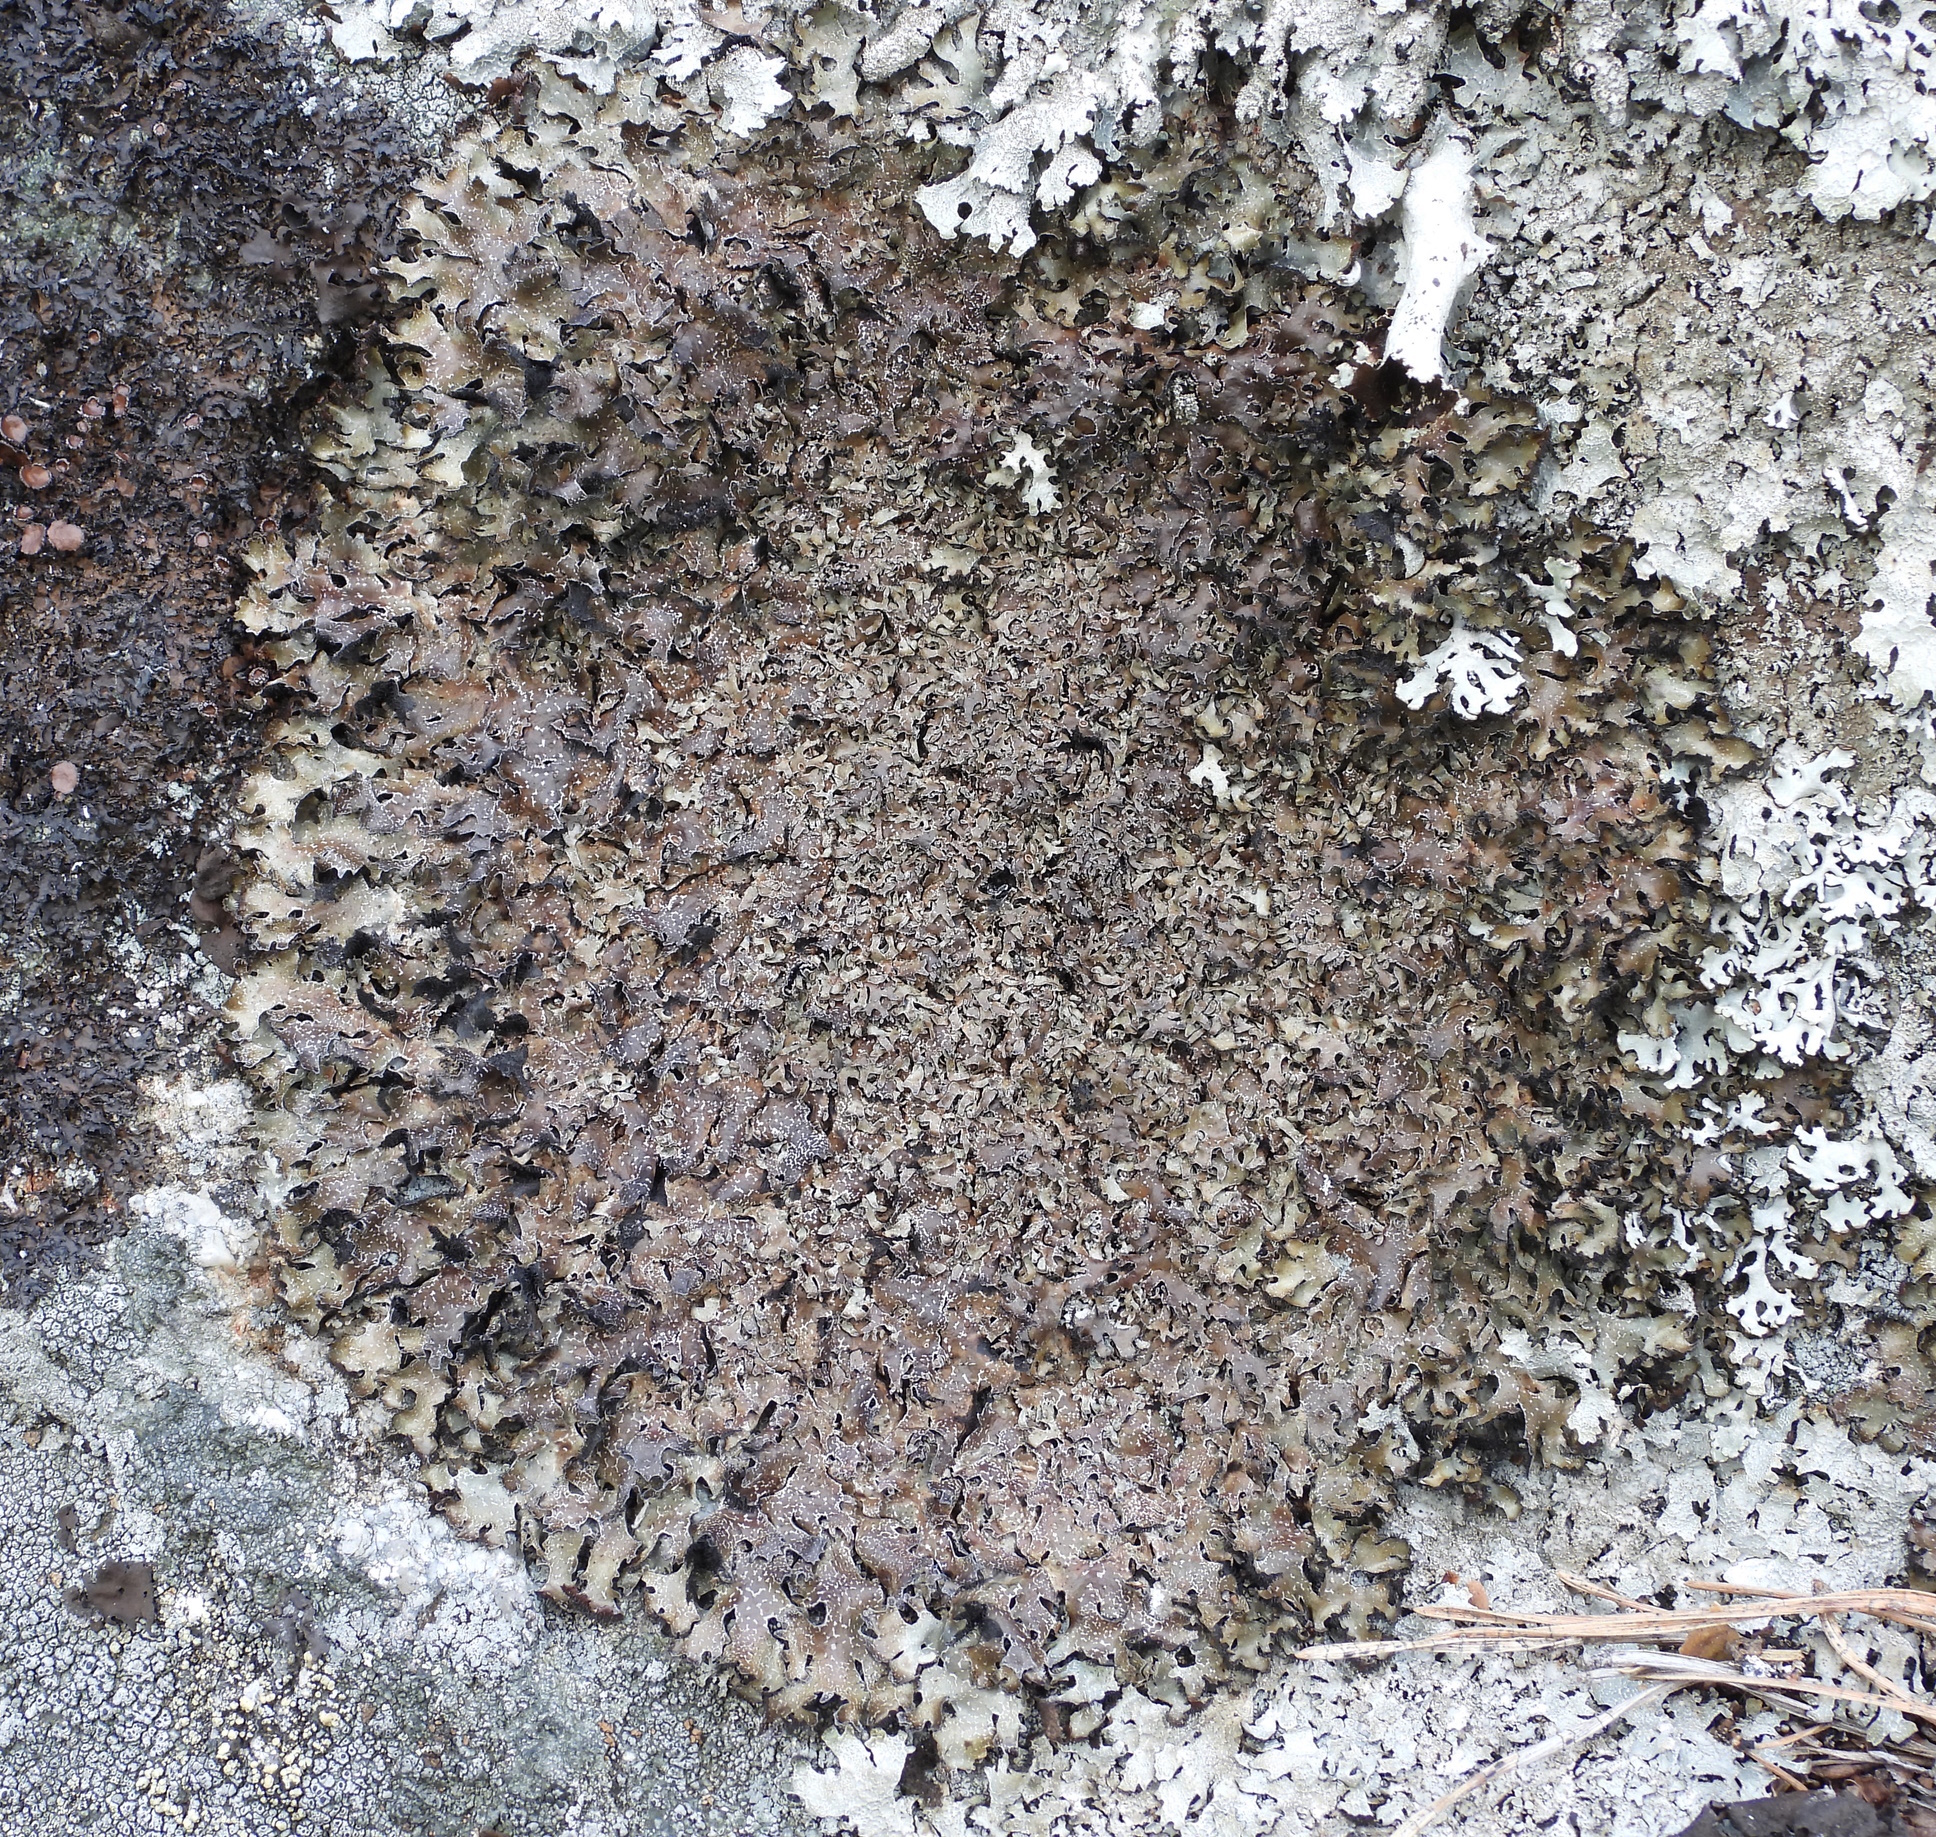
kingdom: Fungi
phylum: Ascomycota
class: Lecanoromycetes
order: Lecanorales
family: Parmeliaceae
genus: Parmelia
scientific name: Parmelia omphalodes
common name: Smoky crottle
